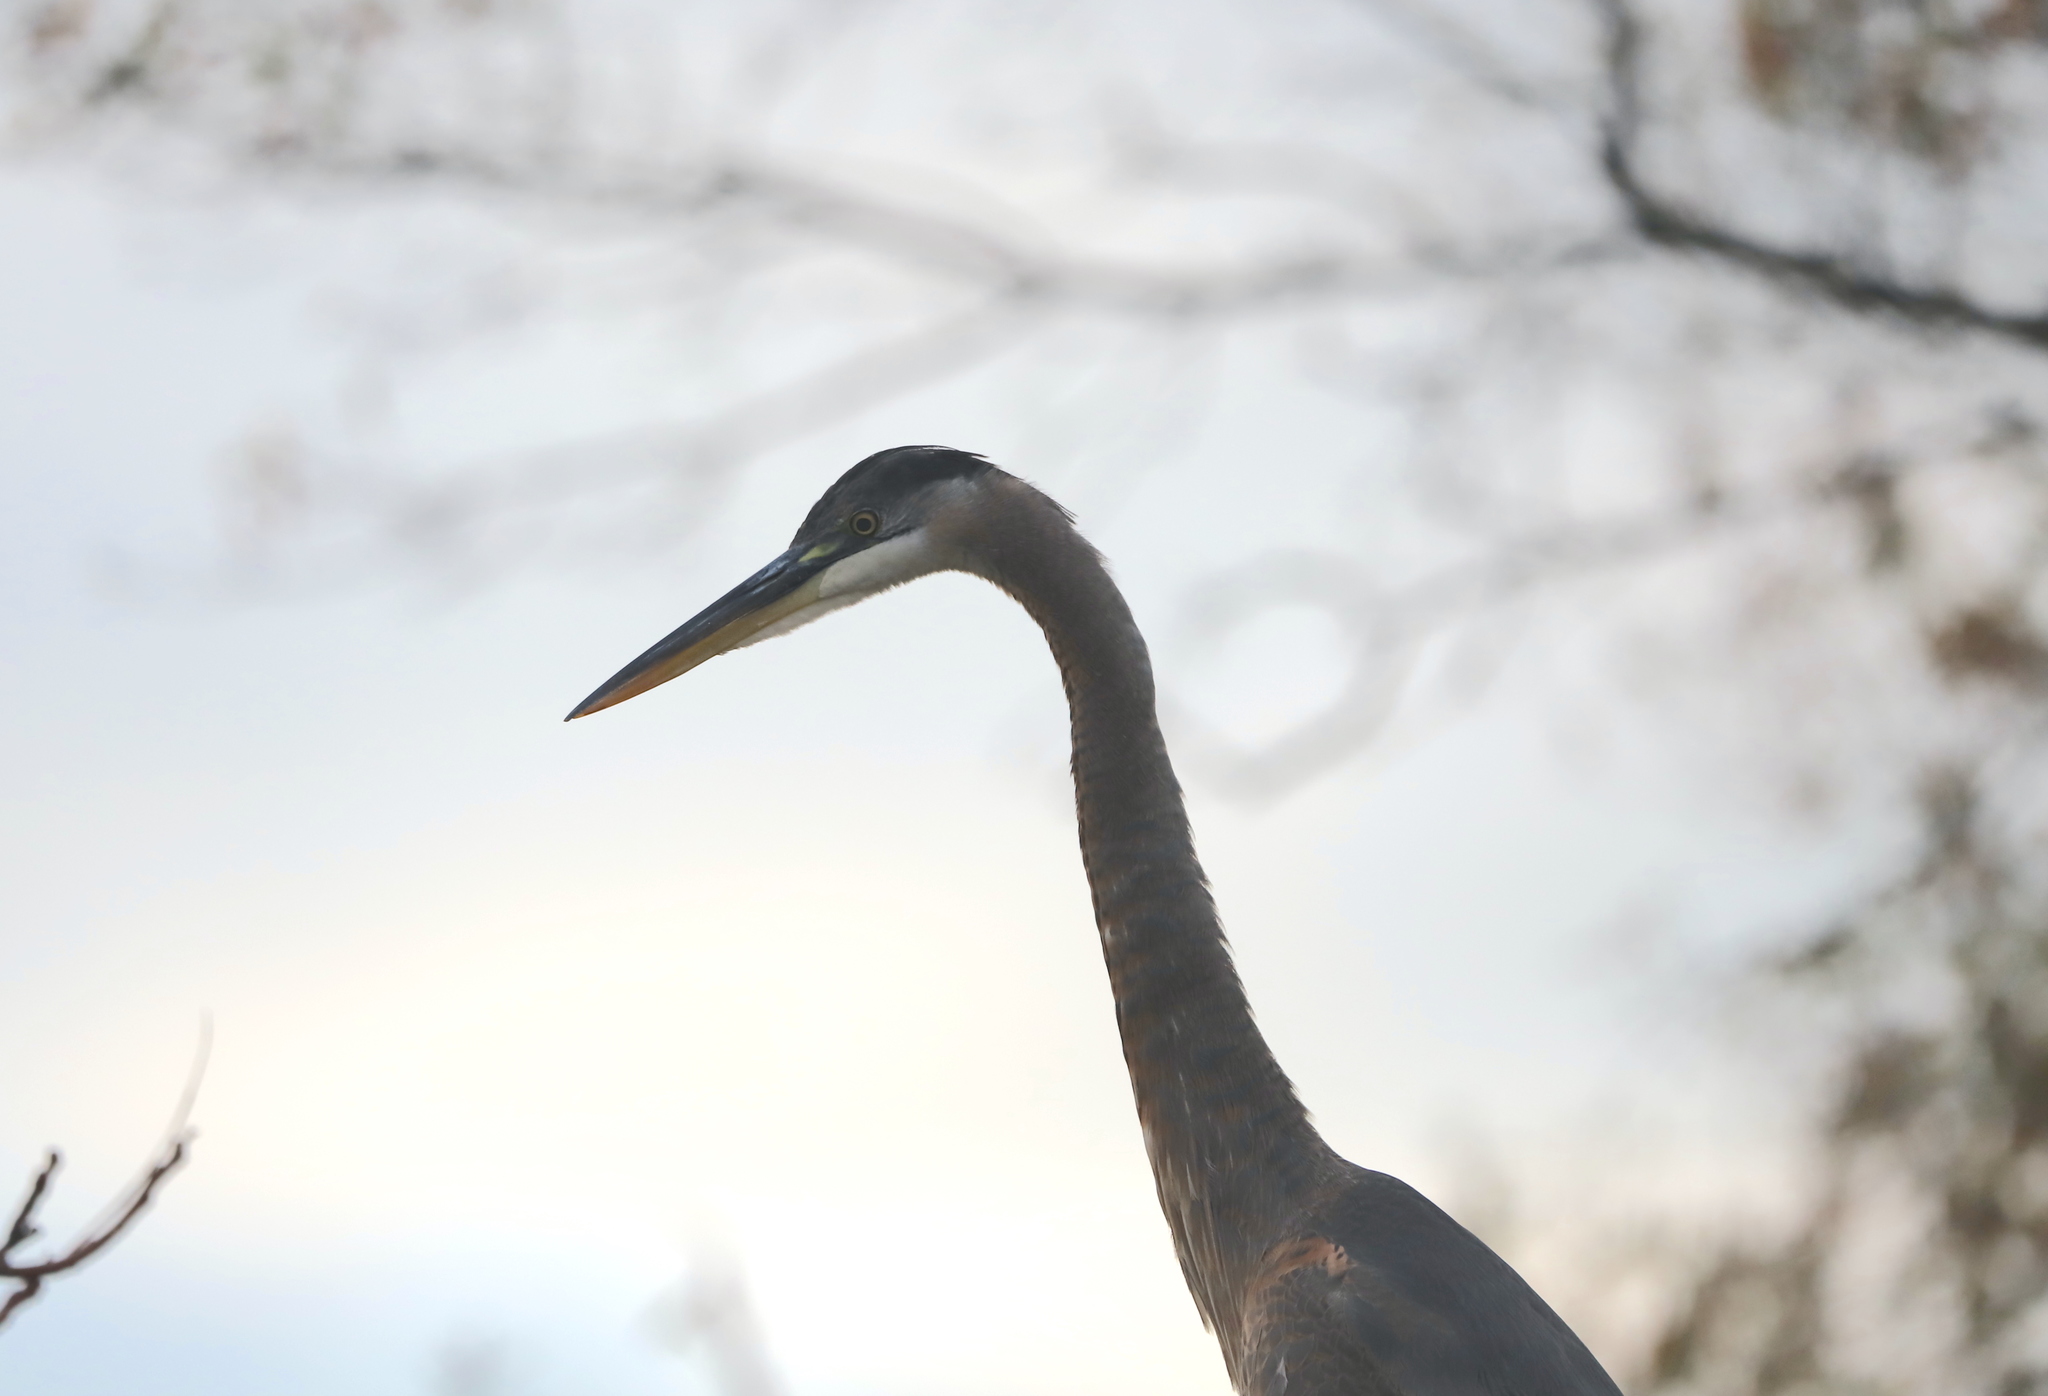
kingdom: Animalia
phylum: Chordata
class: Aves
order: Pelecaniformes
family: Ardeidae
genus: Ardea
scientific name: Ardea herodias
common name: Great blue heron
